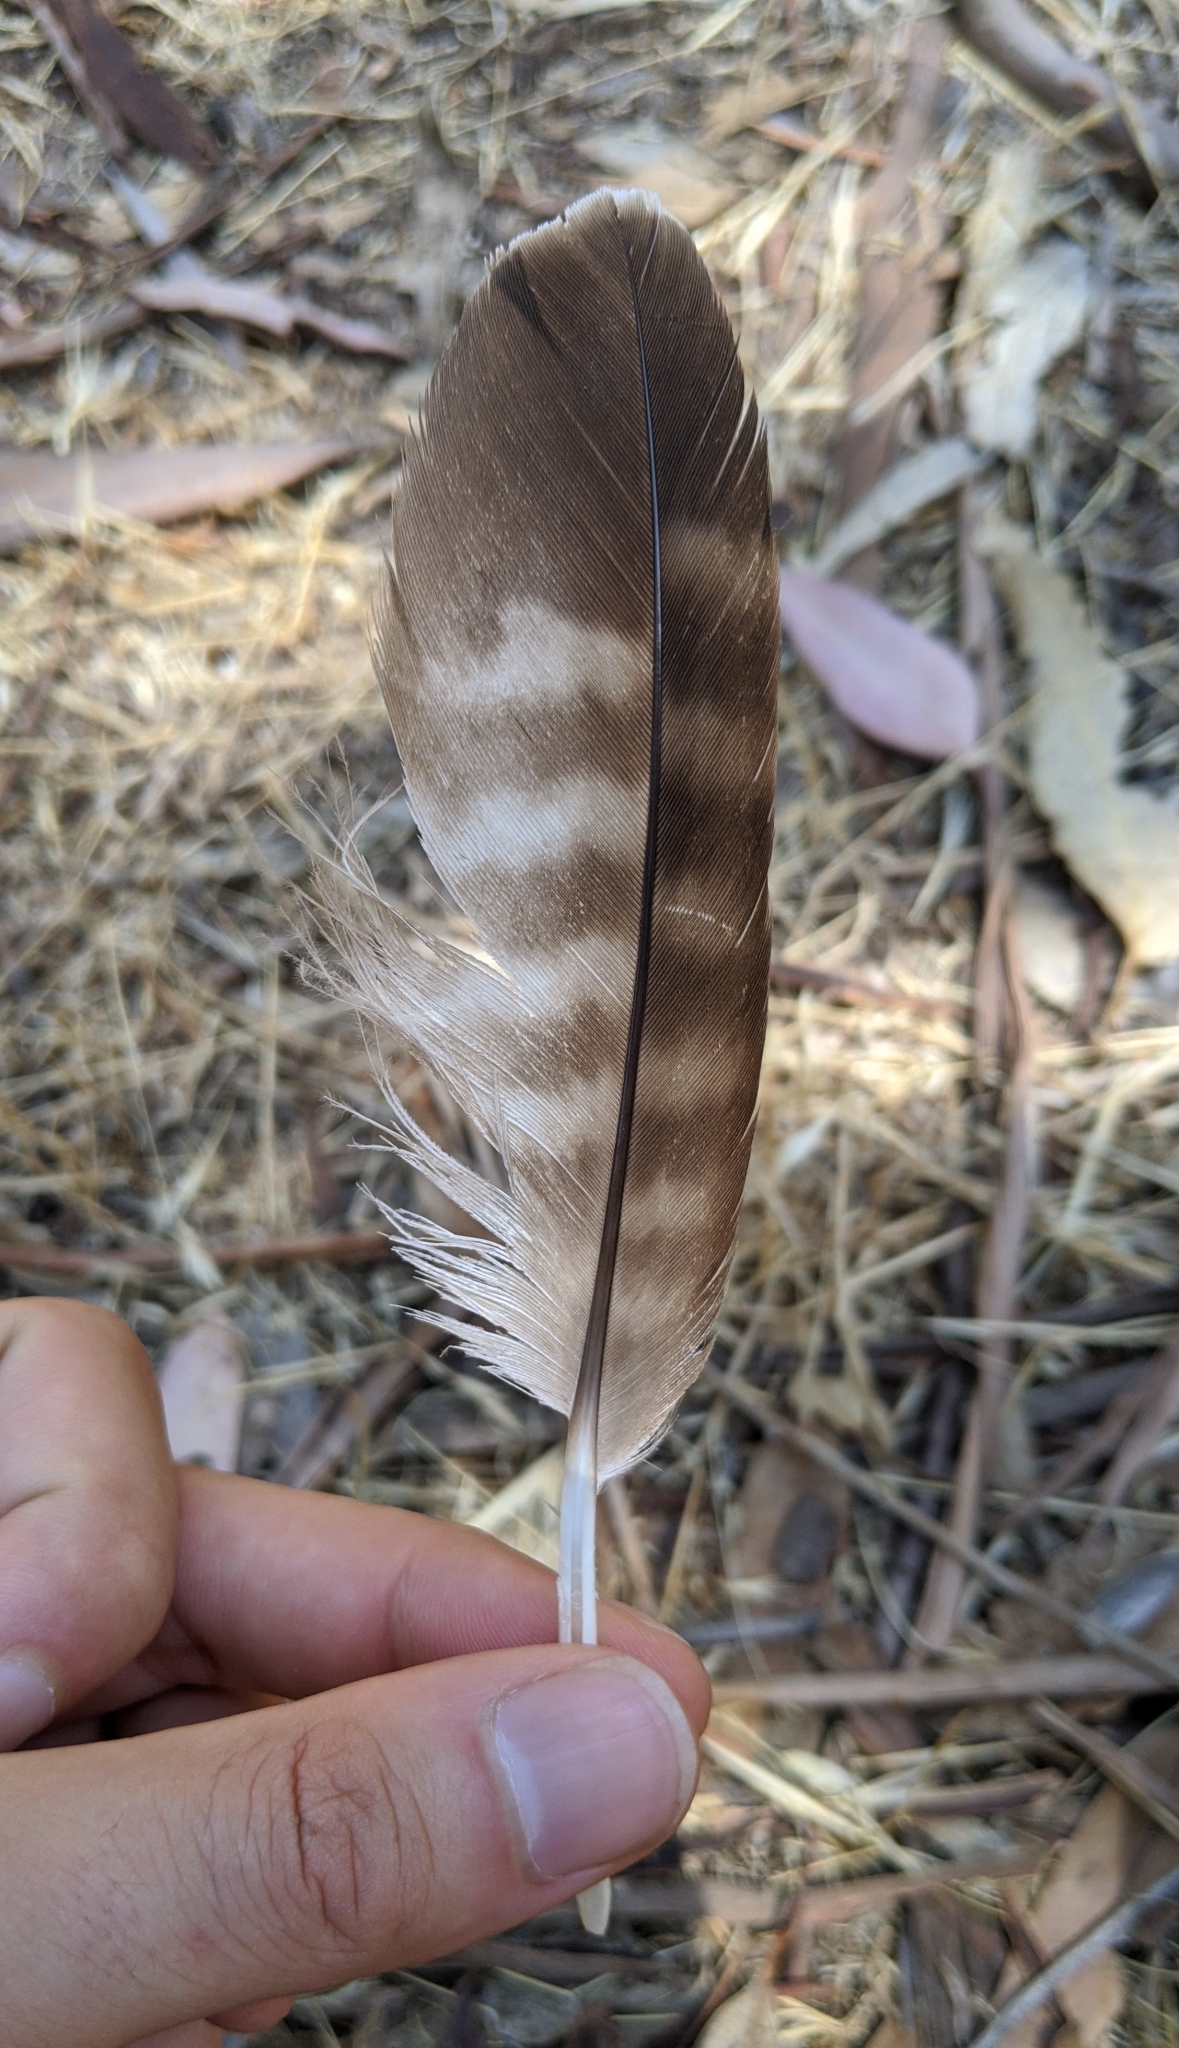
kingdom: Animalia
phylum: Chordata
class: Aves
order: Accipitriformes
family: Accipitridae
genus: Buteo
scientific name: Buteo jamaicensis
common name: Red-tailed hawk
